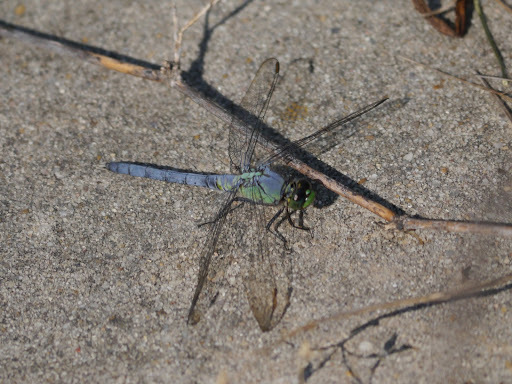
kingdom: Animalia
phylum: Arthropoda
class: Insecta
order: Odonata
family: Libellulidae
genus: Erythemis
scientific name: Erythemis simplicicollis
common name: Eastern pondhawk
